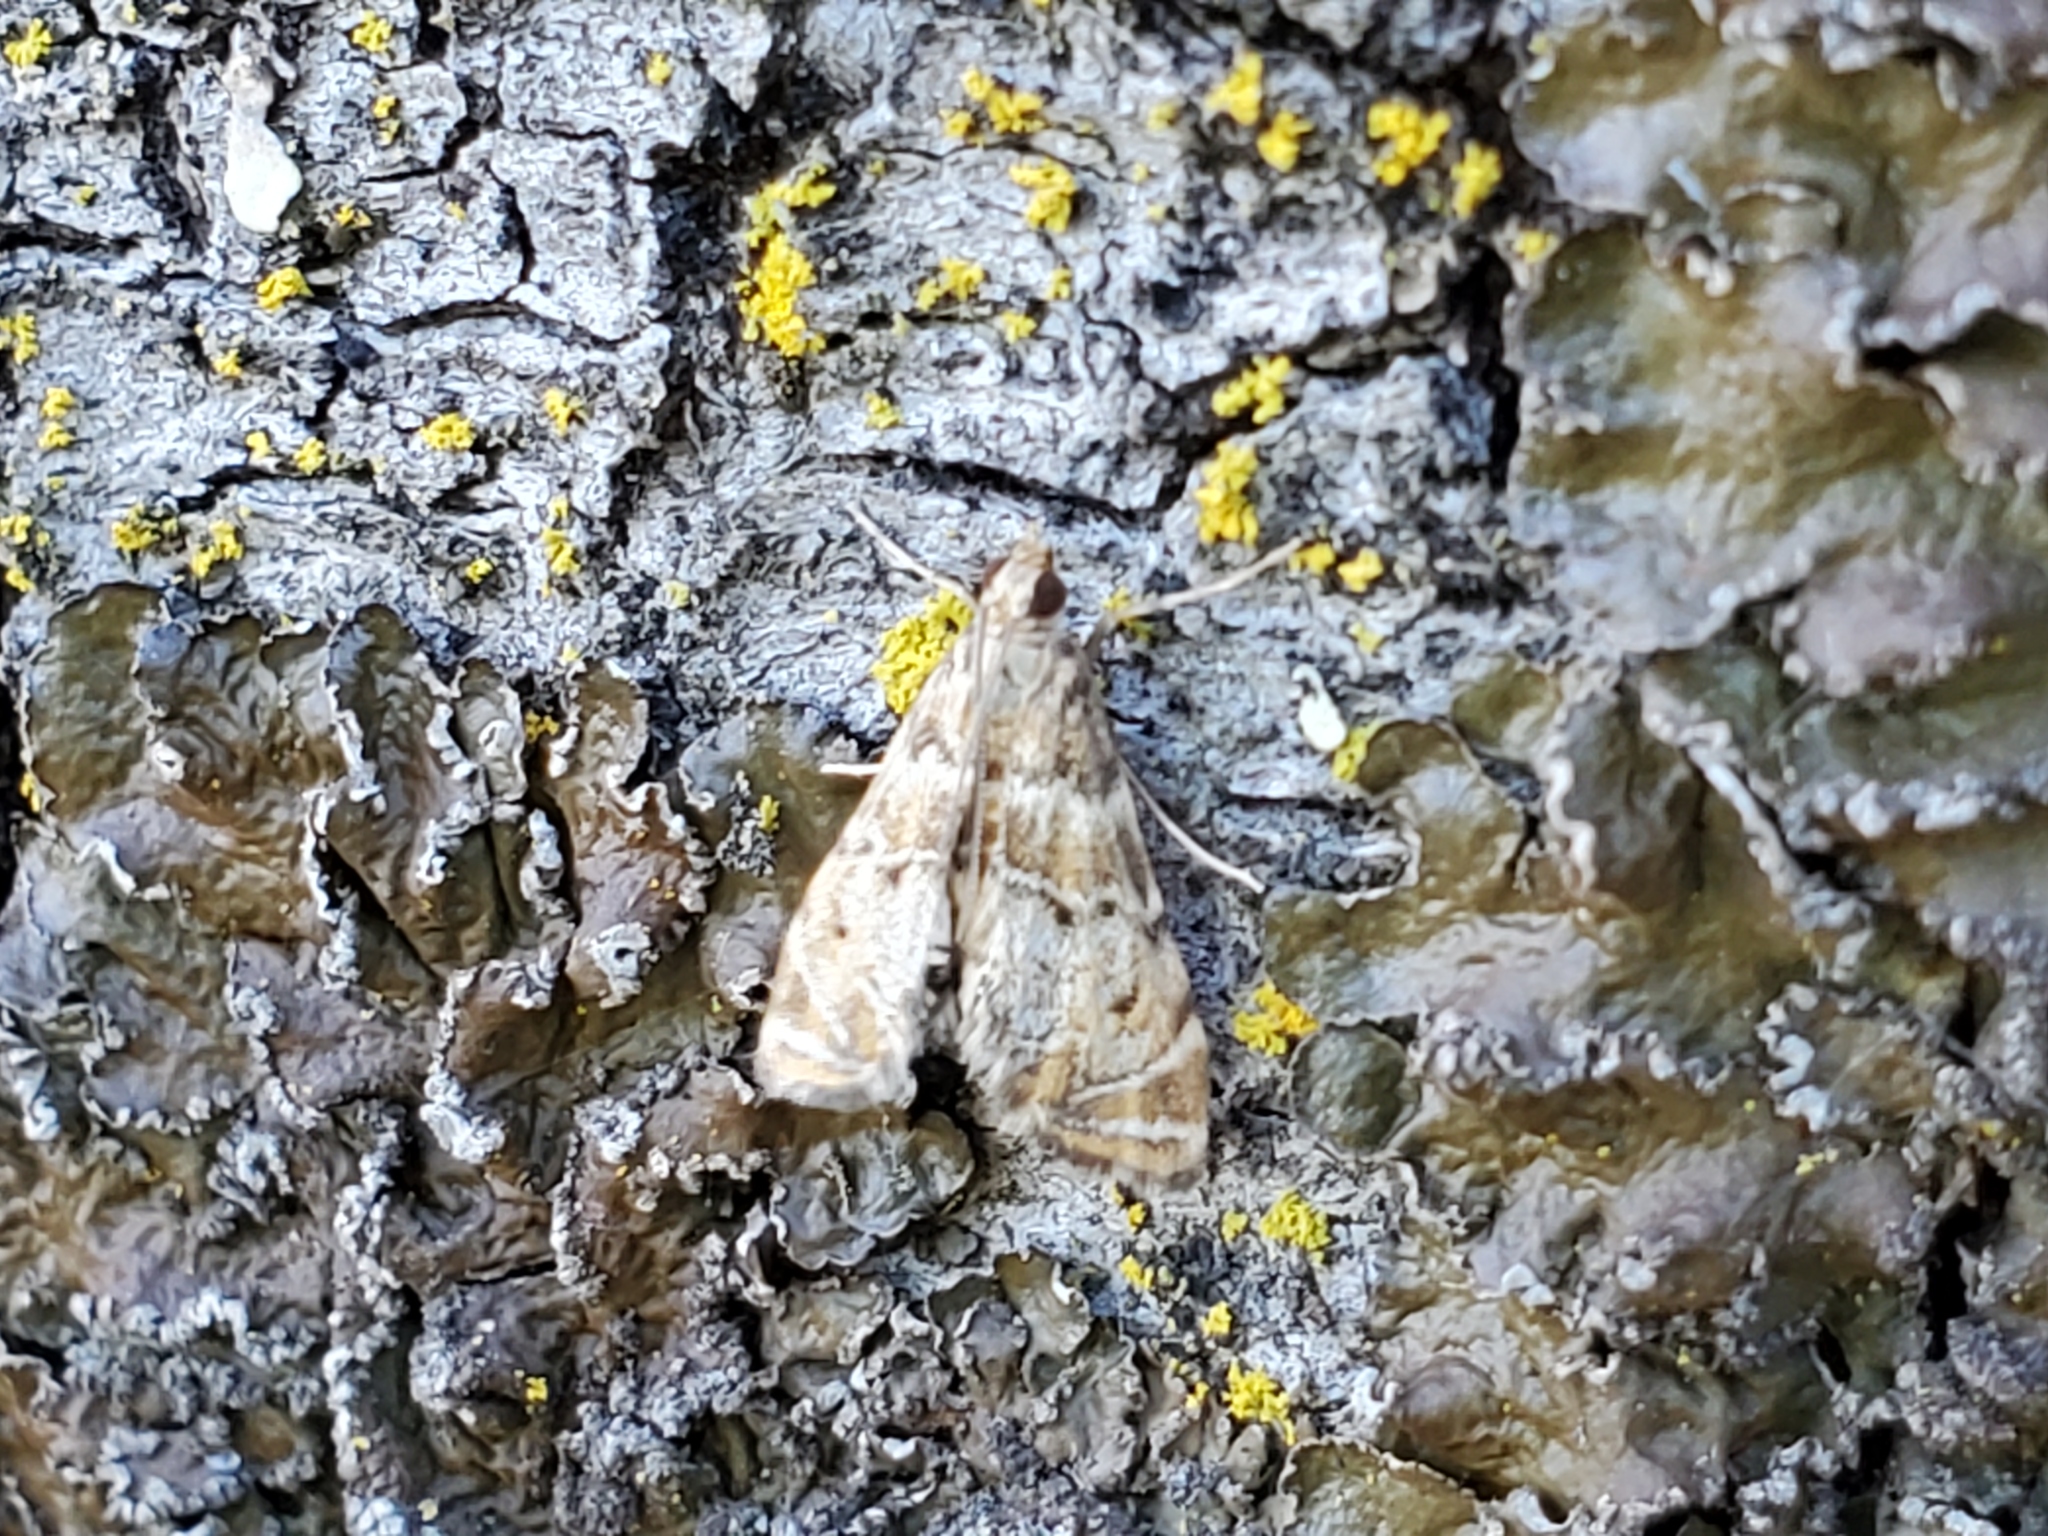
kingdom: Animalia
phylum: Arthropoda
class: Insecta
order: Lepidoptera
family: Crambidae
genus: Petrophila
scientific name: Petrophila confusalis
